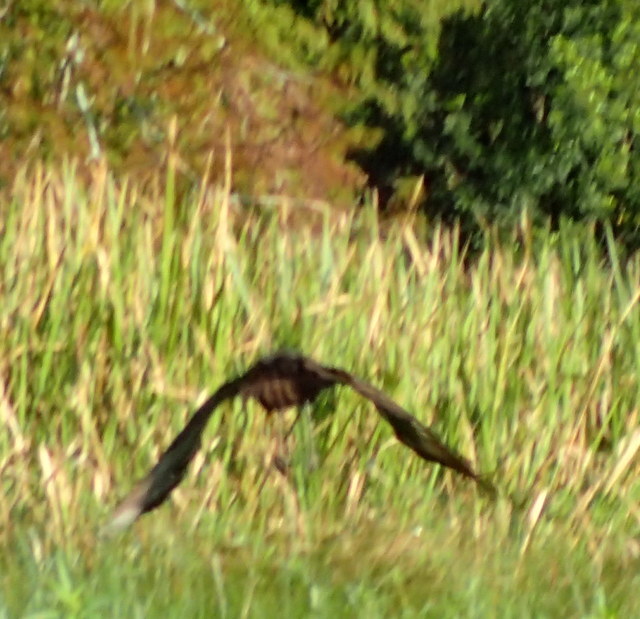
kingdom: Animalia
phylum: Chordata
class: Aves
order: Gruiformes
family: Aramidae
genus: Aramus
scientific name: Aramus guarauna
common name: Limpkin
